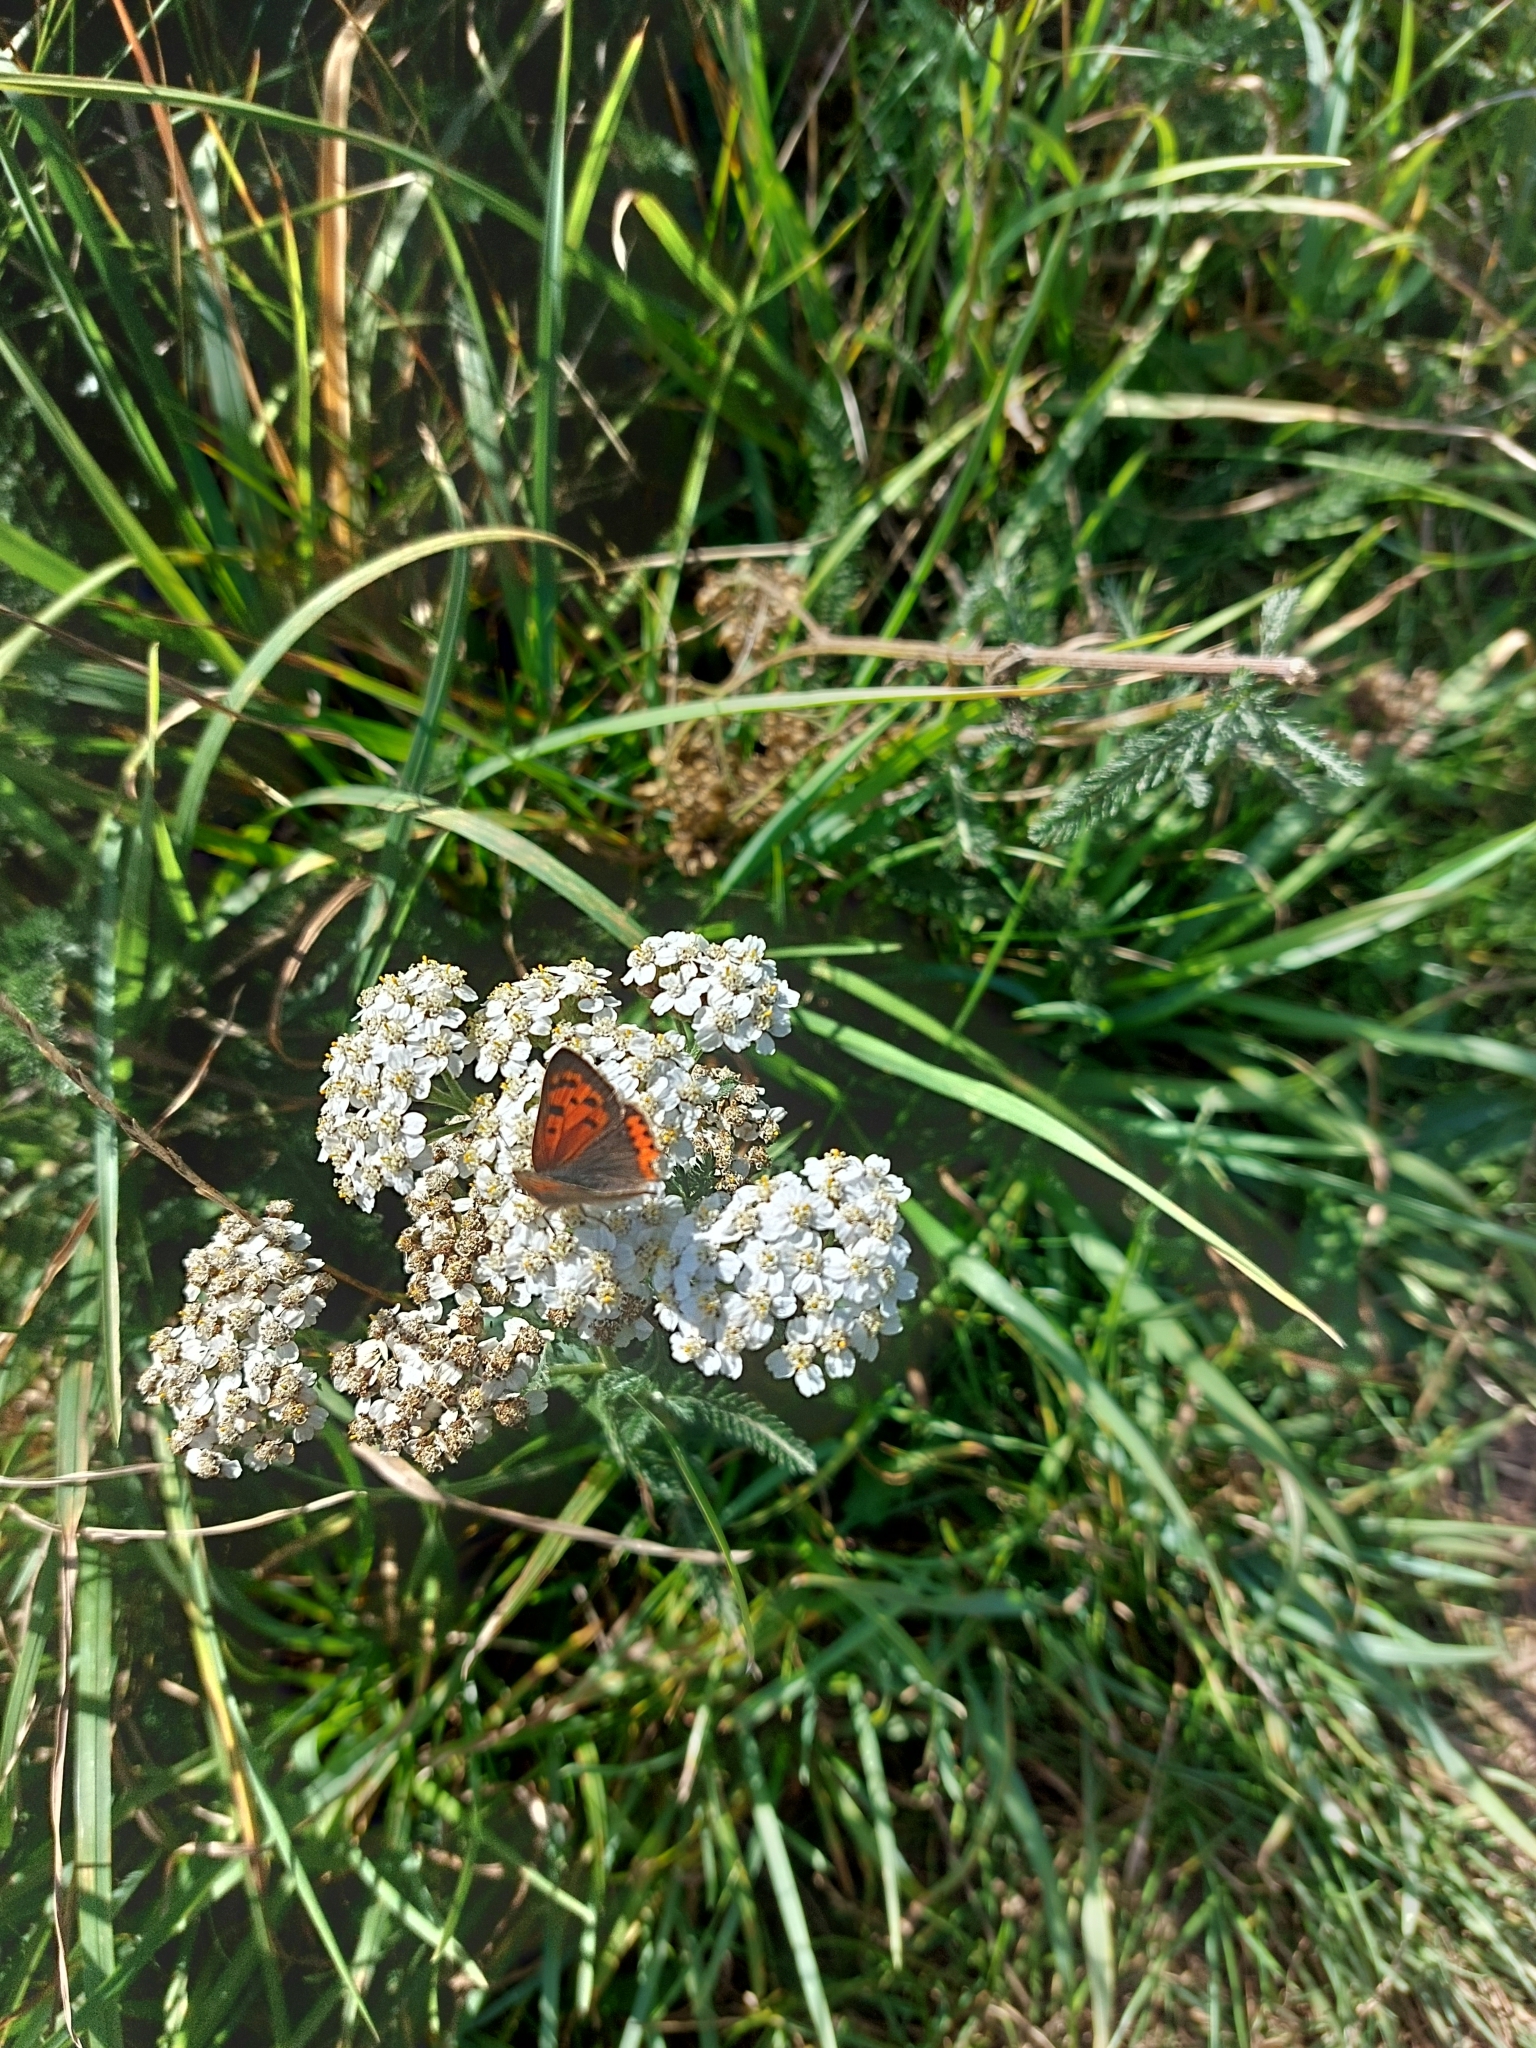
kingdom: Animalia
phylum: Arthropoda
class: Insecta
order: Lepidoptera
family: Lycaenidae
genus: Lycaena
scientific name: Lycaena phlaeas
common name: Small copper
